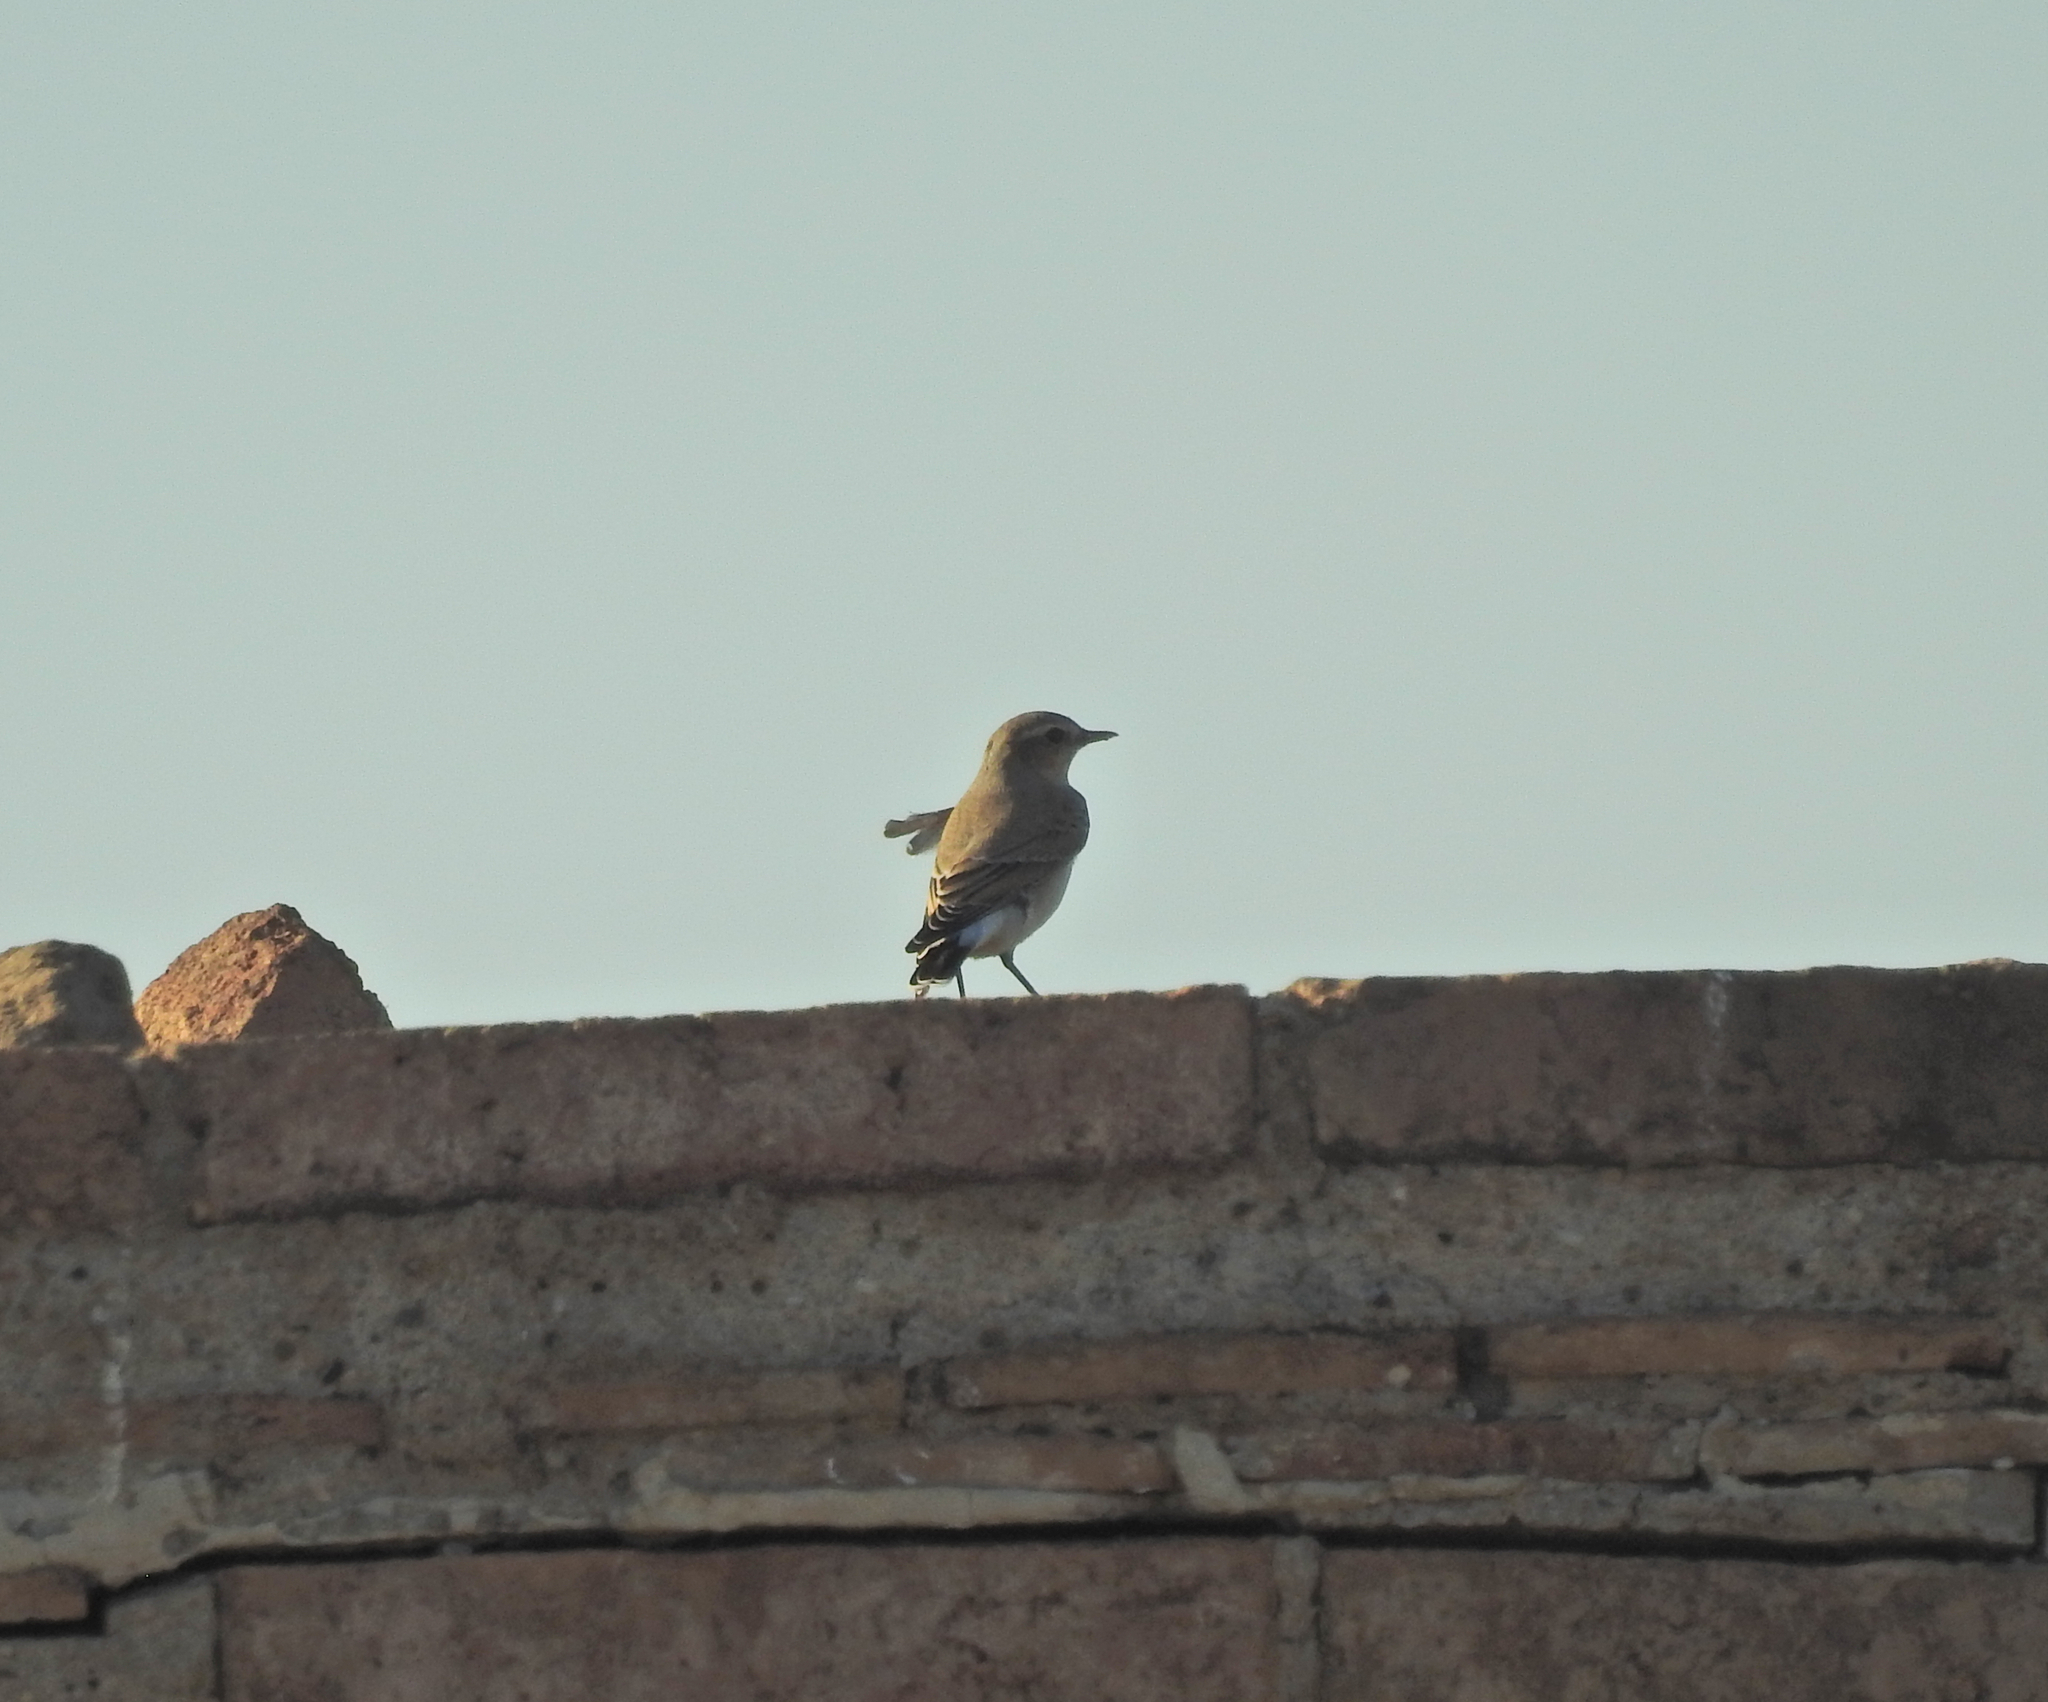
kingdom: Animalia
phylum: Chordata
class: Aves
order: Passeriformes
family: Muscicapidae
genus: Oenanthe
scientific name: Oenanthe oenanthe
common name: Northern wheatear
